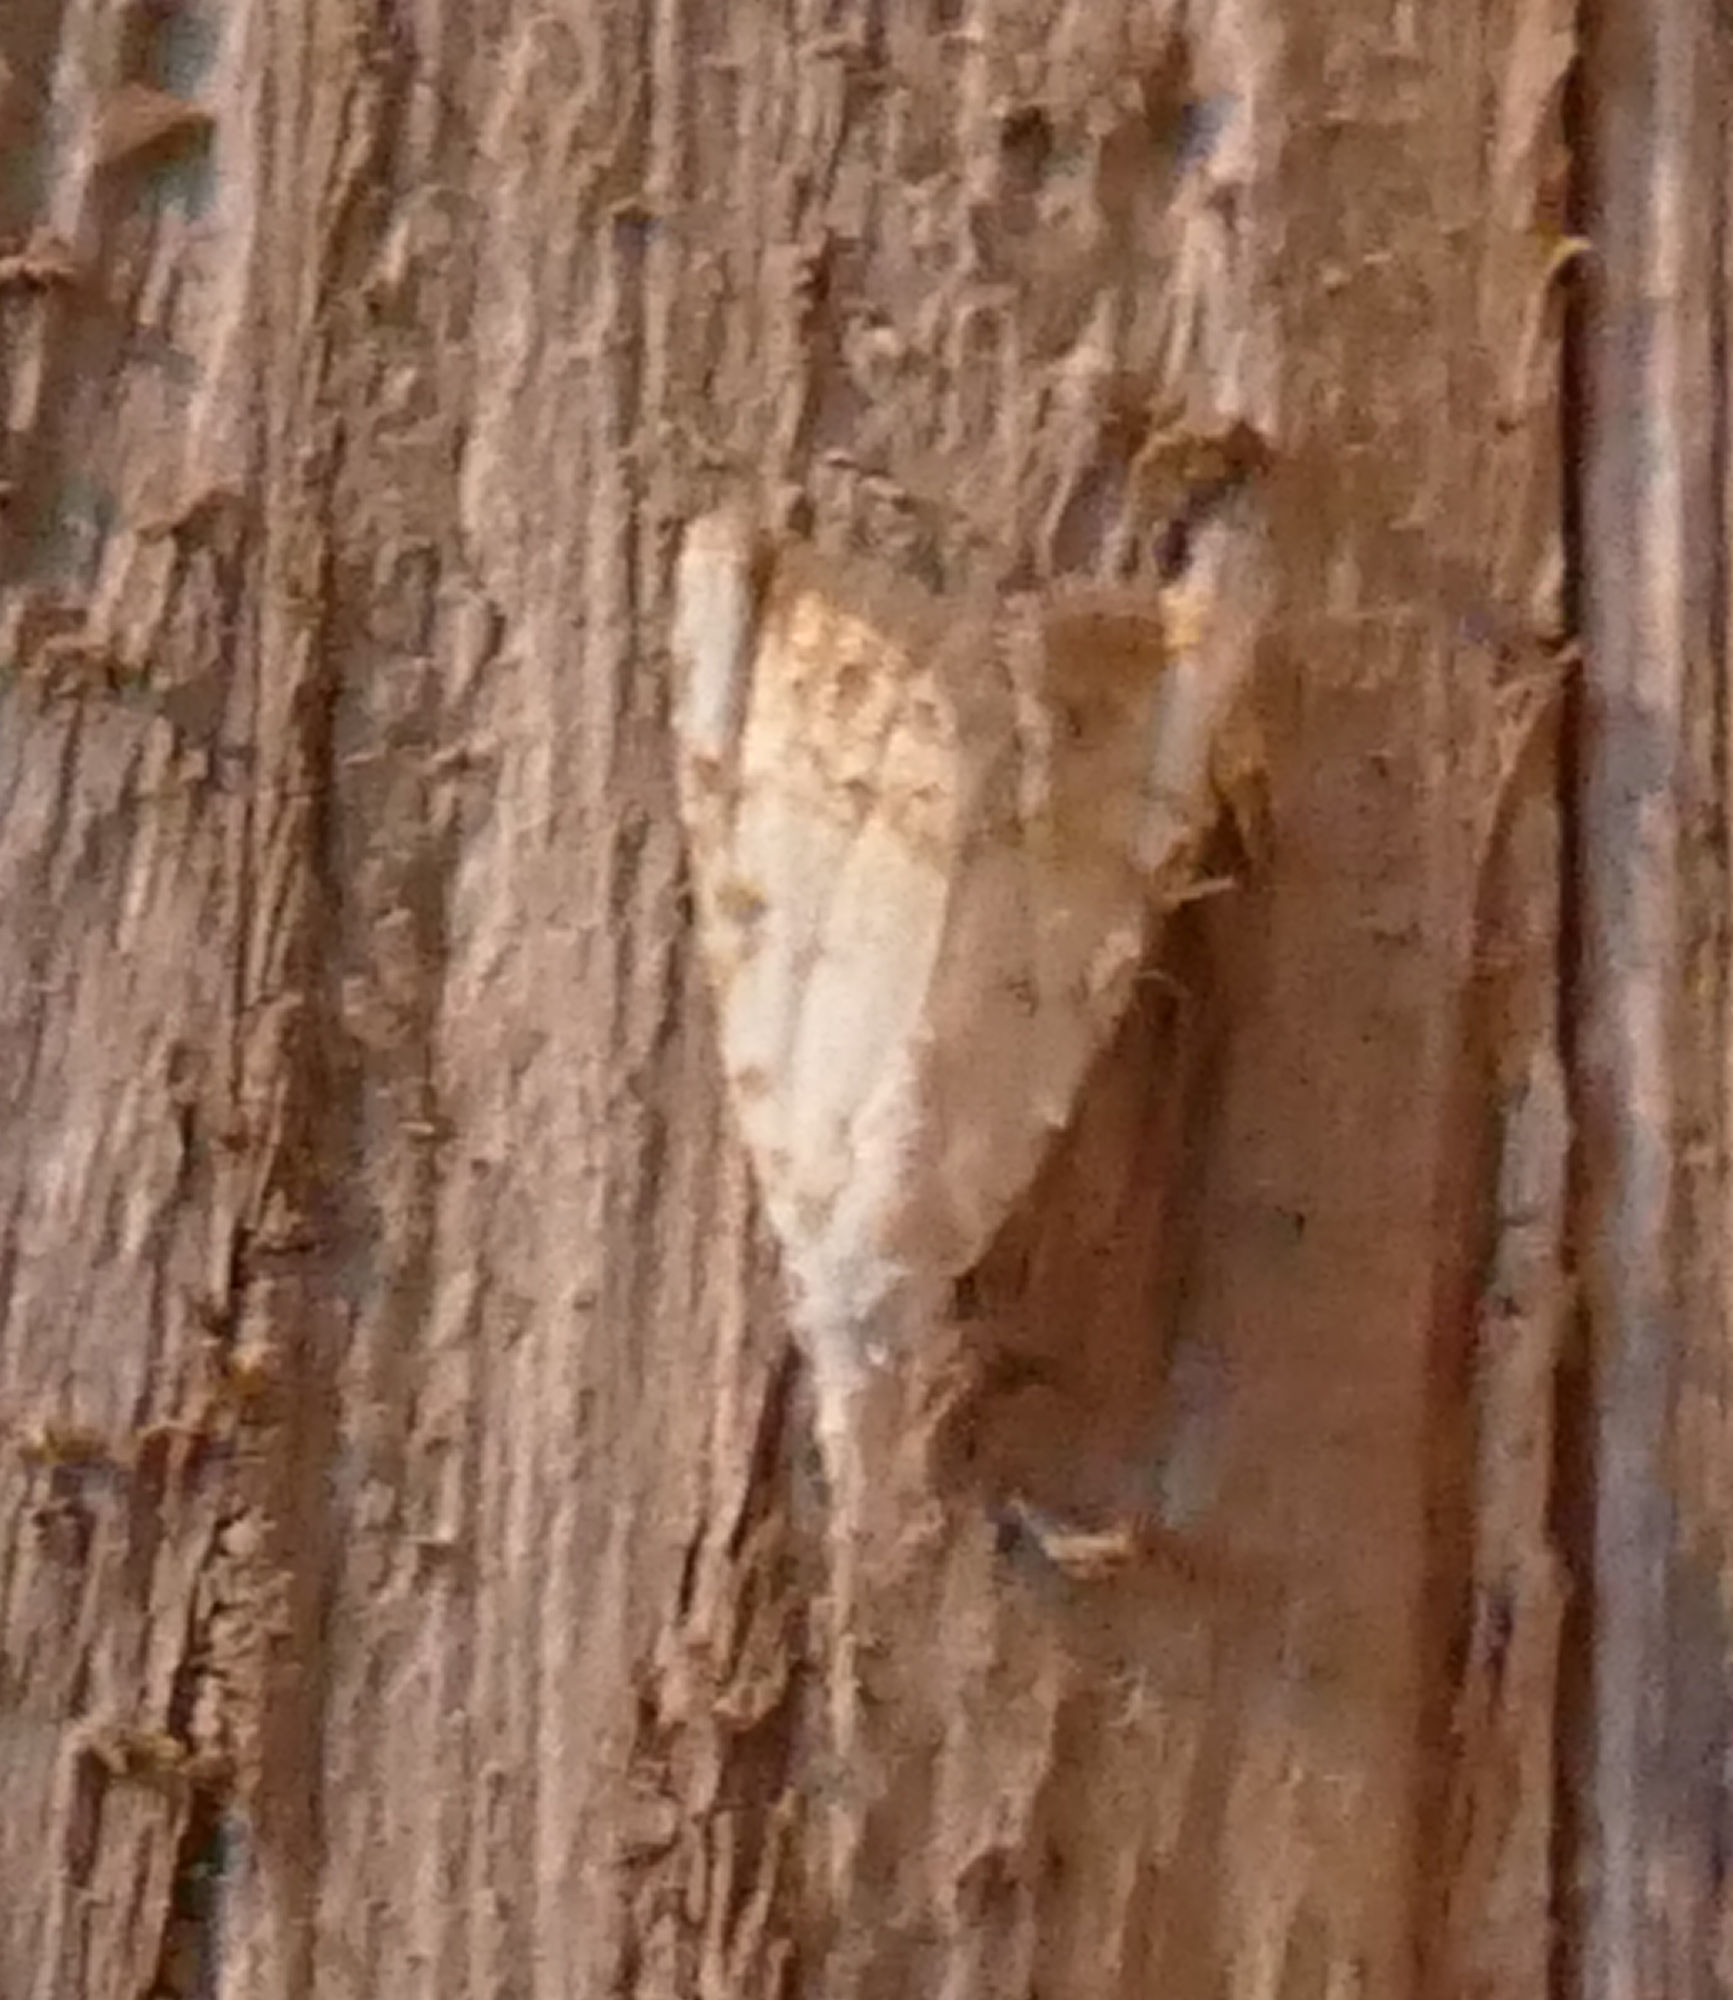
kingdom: Animalia
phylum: Arthropoda
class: Insecta
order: Lepidoptera
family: Nolidae
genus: Nola
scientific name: Nola cereella
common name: Sorghum webworm moth
